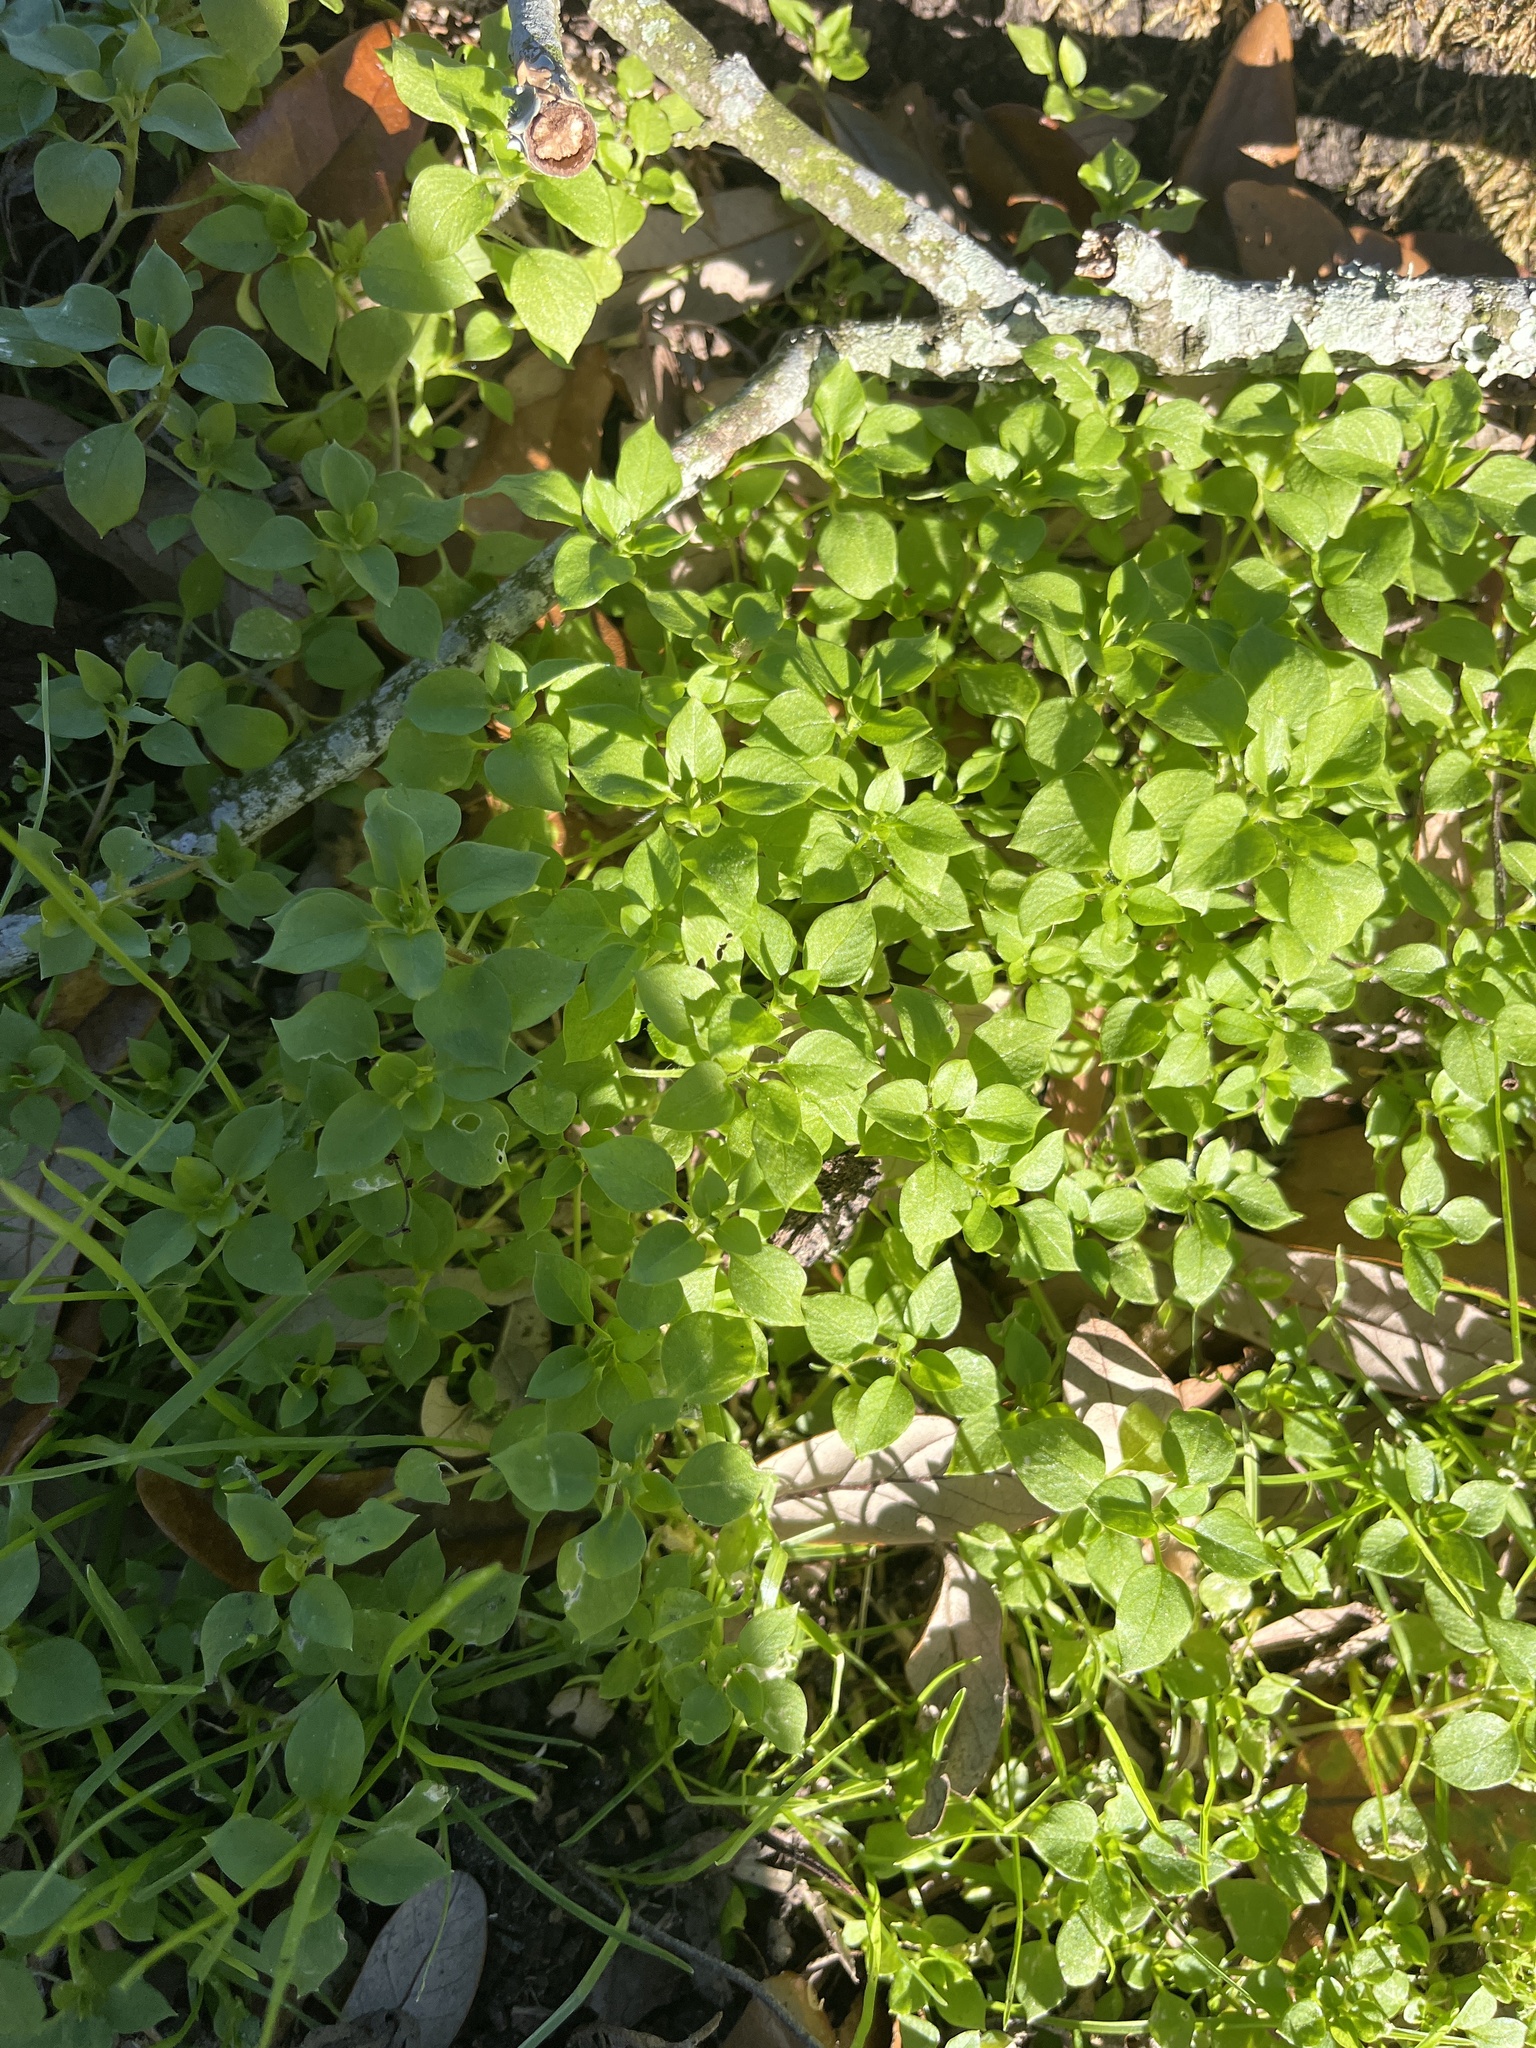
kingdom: Plantae
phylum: Tracheophyta
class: Magnoliopsida
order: Caryophyllales
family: Caryophyllaceae
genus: Stellaria
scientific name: Stellaria media
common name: Common chickweed
